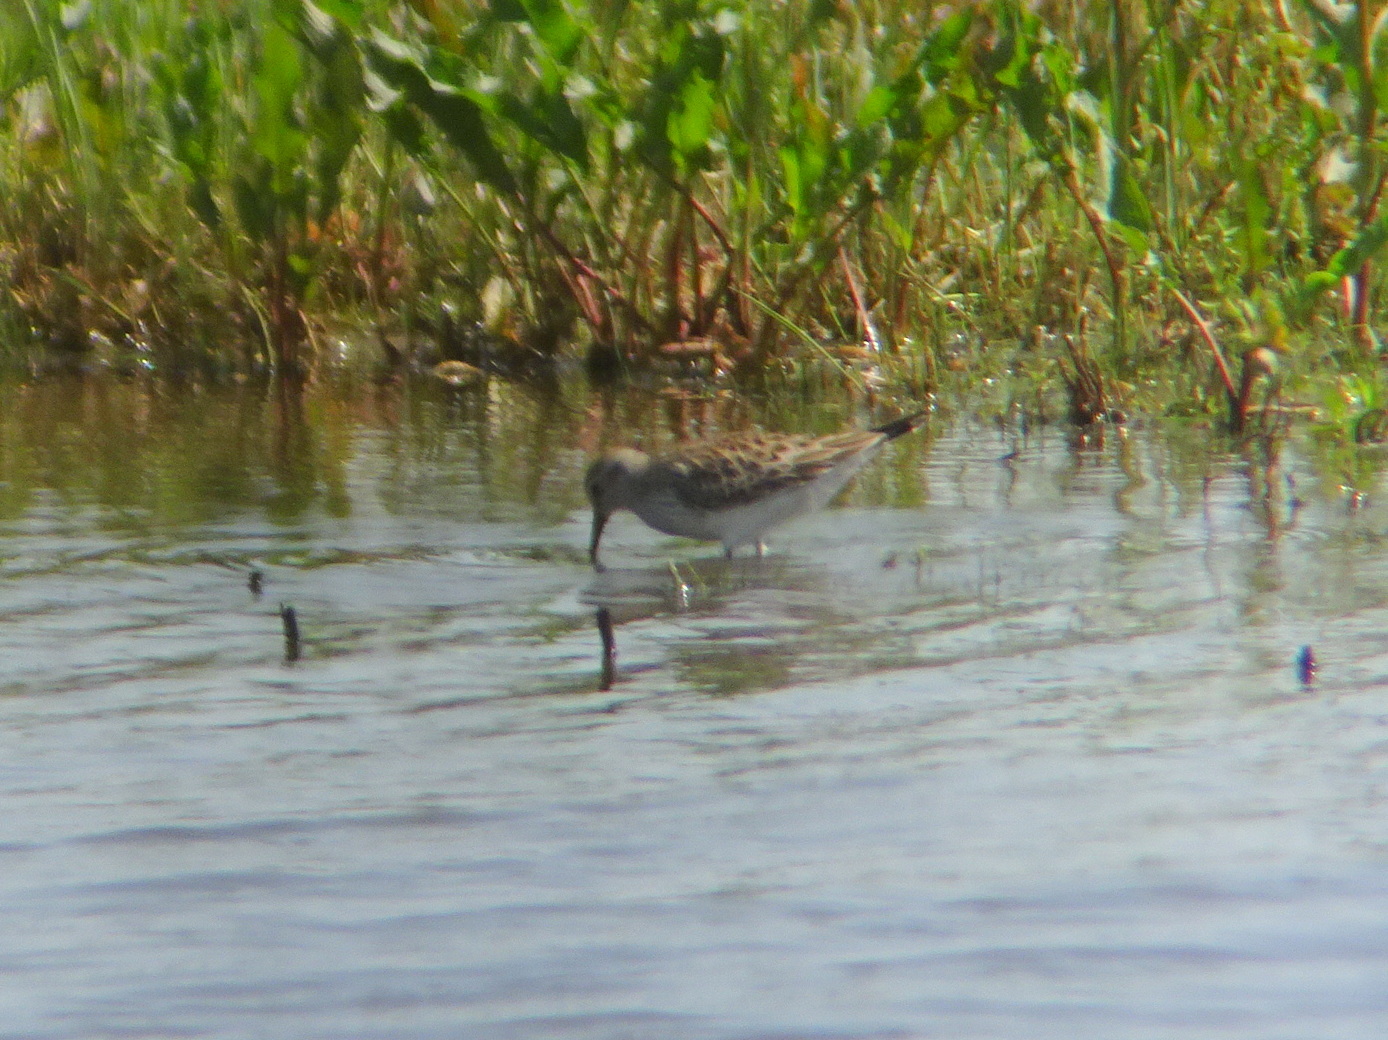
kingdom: Animalia
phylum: Chordata
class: Aves
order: Charadriiformes
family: Scolopacidae
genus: Calidris
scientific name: Calidris fuscicollis
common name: White-rumped sandpiper
